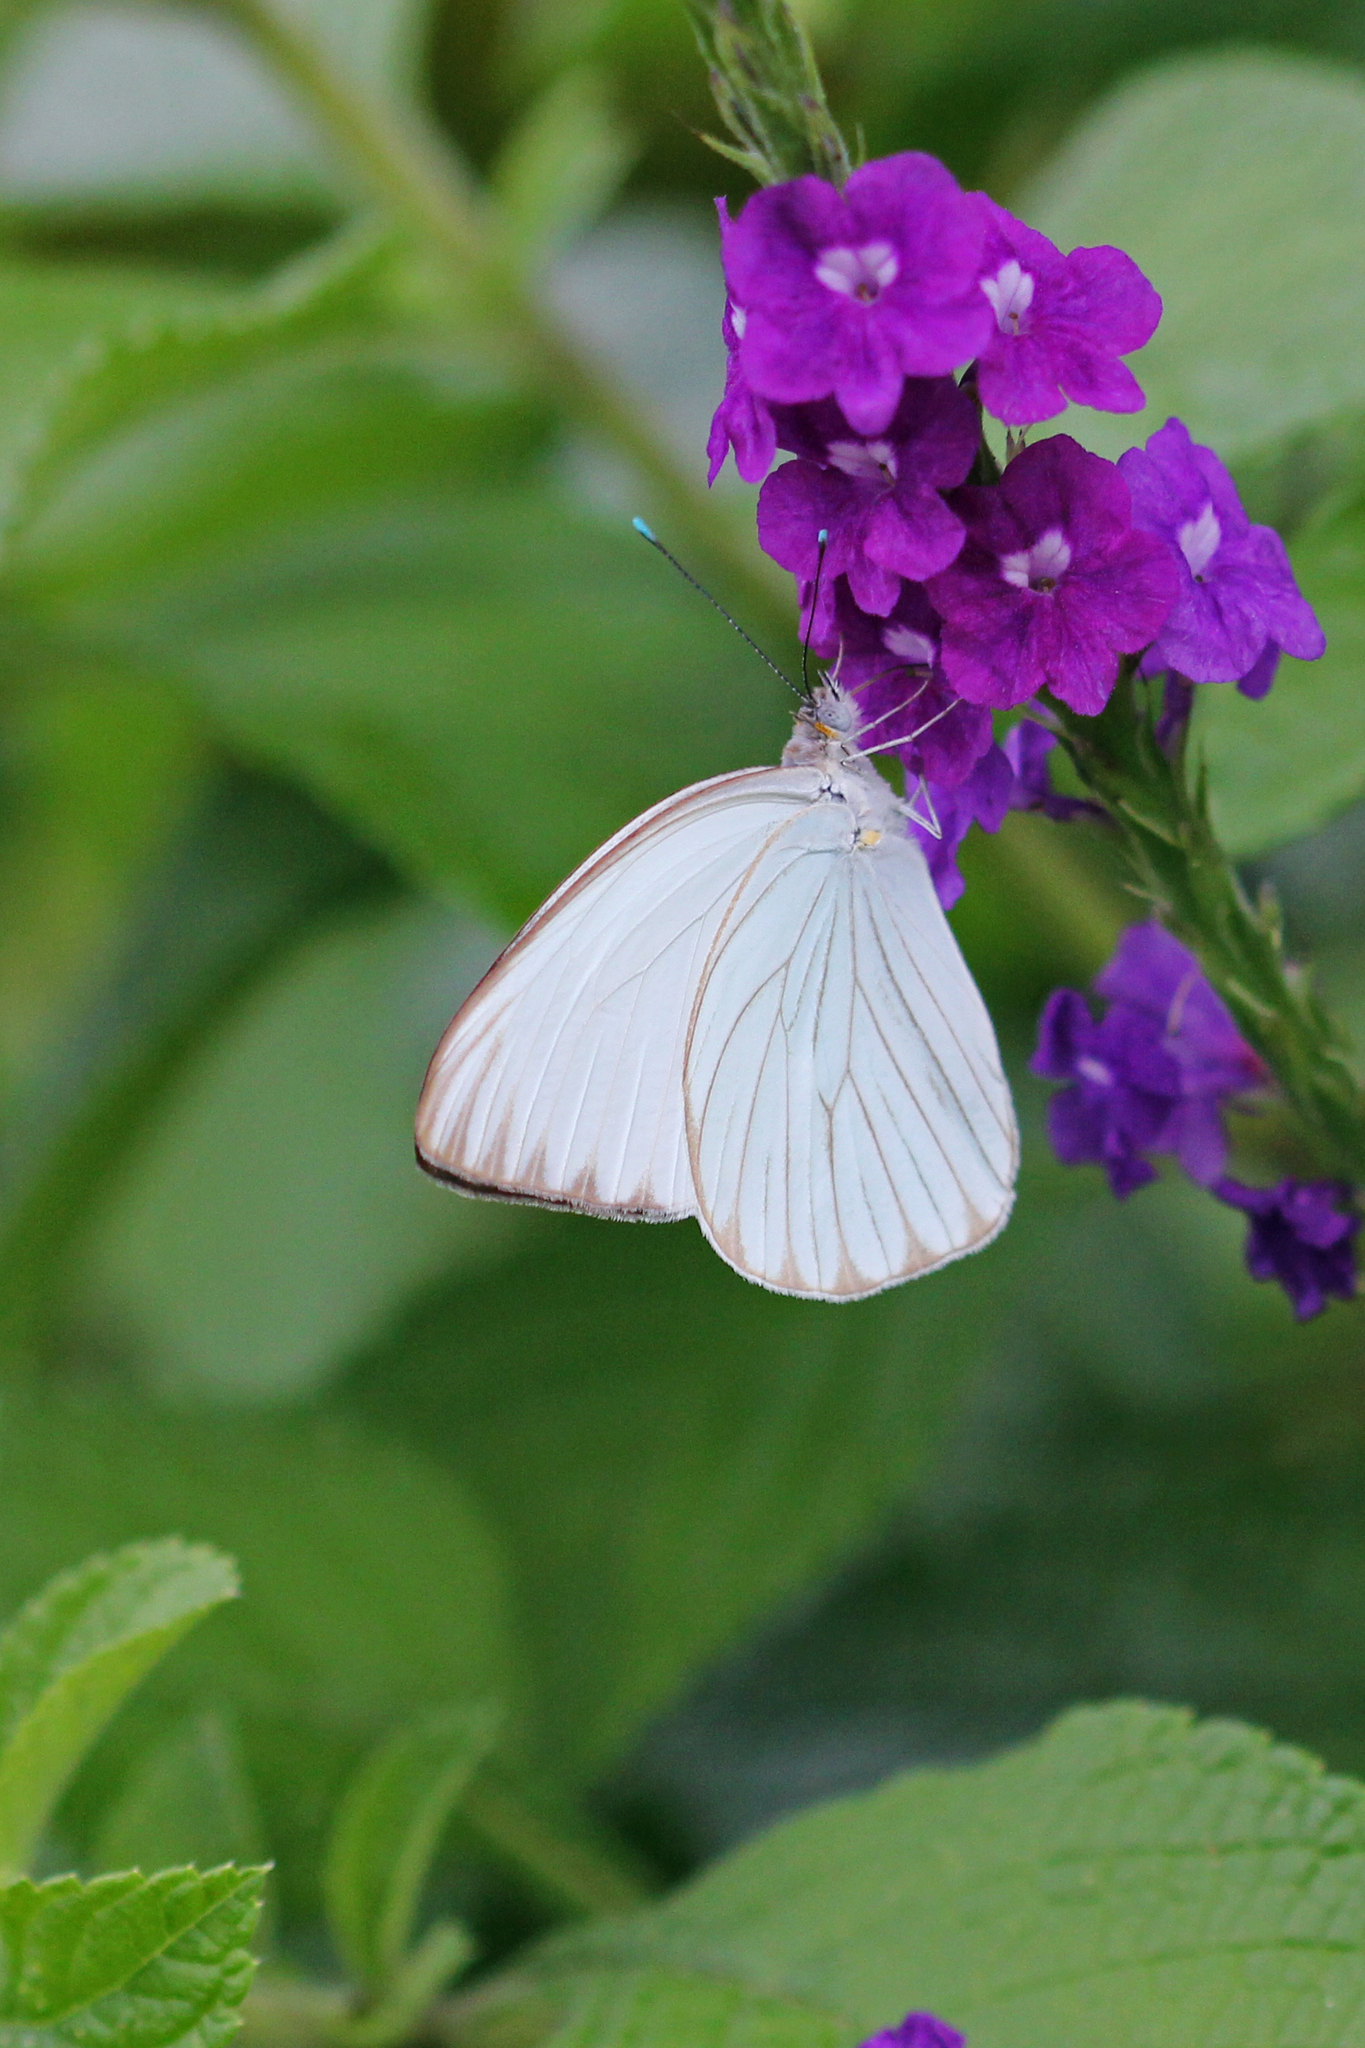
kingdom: Animalia
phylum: Arthropoda
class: Insecta
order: Lepidoptera
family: Pieridae
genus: Ascia
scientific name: Ascia monuste
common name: Great southern white
